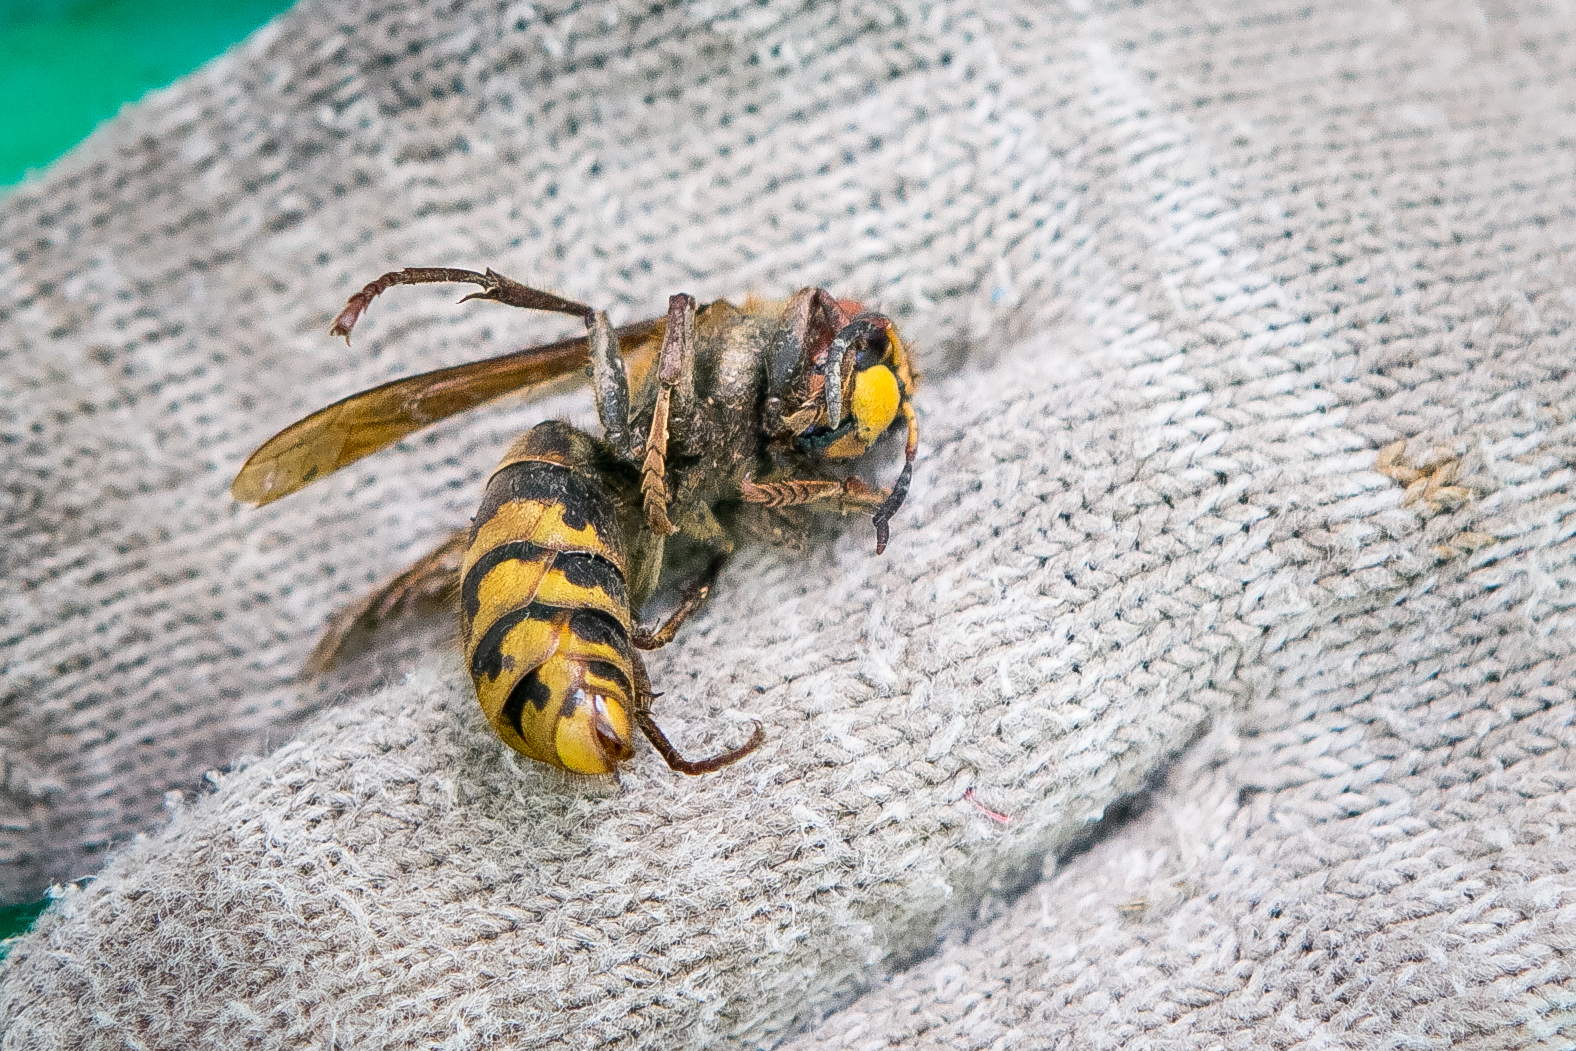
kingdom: Animalia
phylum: Arthropoda
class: Insecta
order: Hymenoptera
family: Vespidae
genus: Vespa
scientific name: Vespa crabro
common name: Hornet
